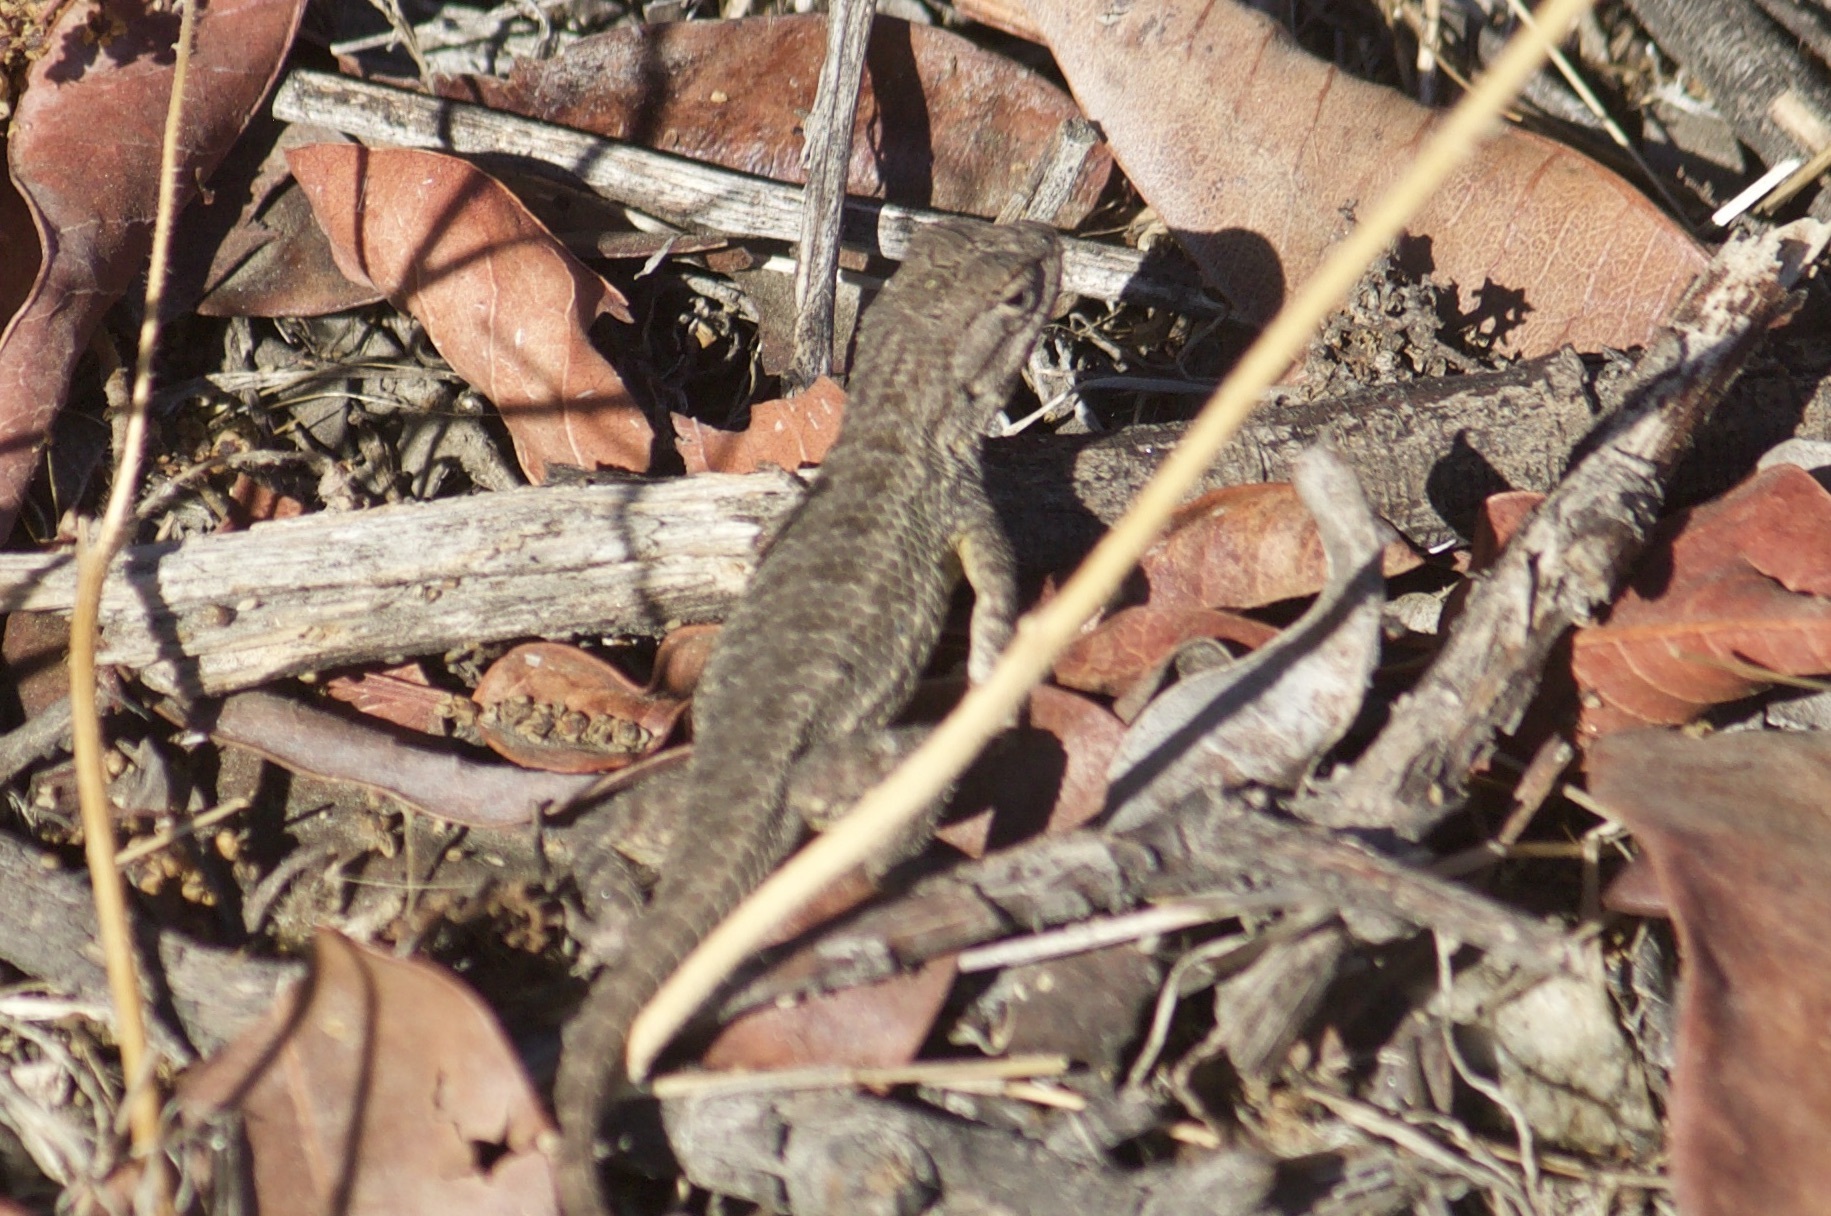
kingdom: Animalia
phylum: Chordata
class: Squamata
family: Phrynosomatidae
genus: Sceloporus
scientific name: Sceloporus occidentalis
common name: Western fence lizard
